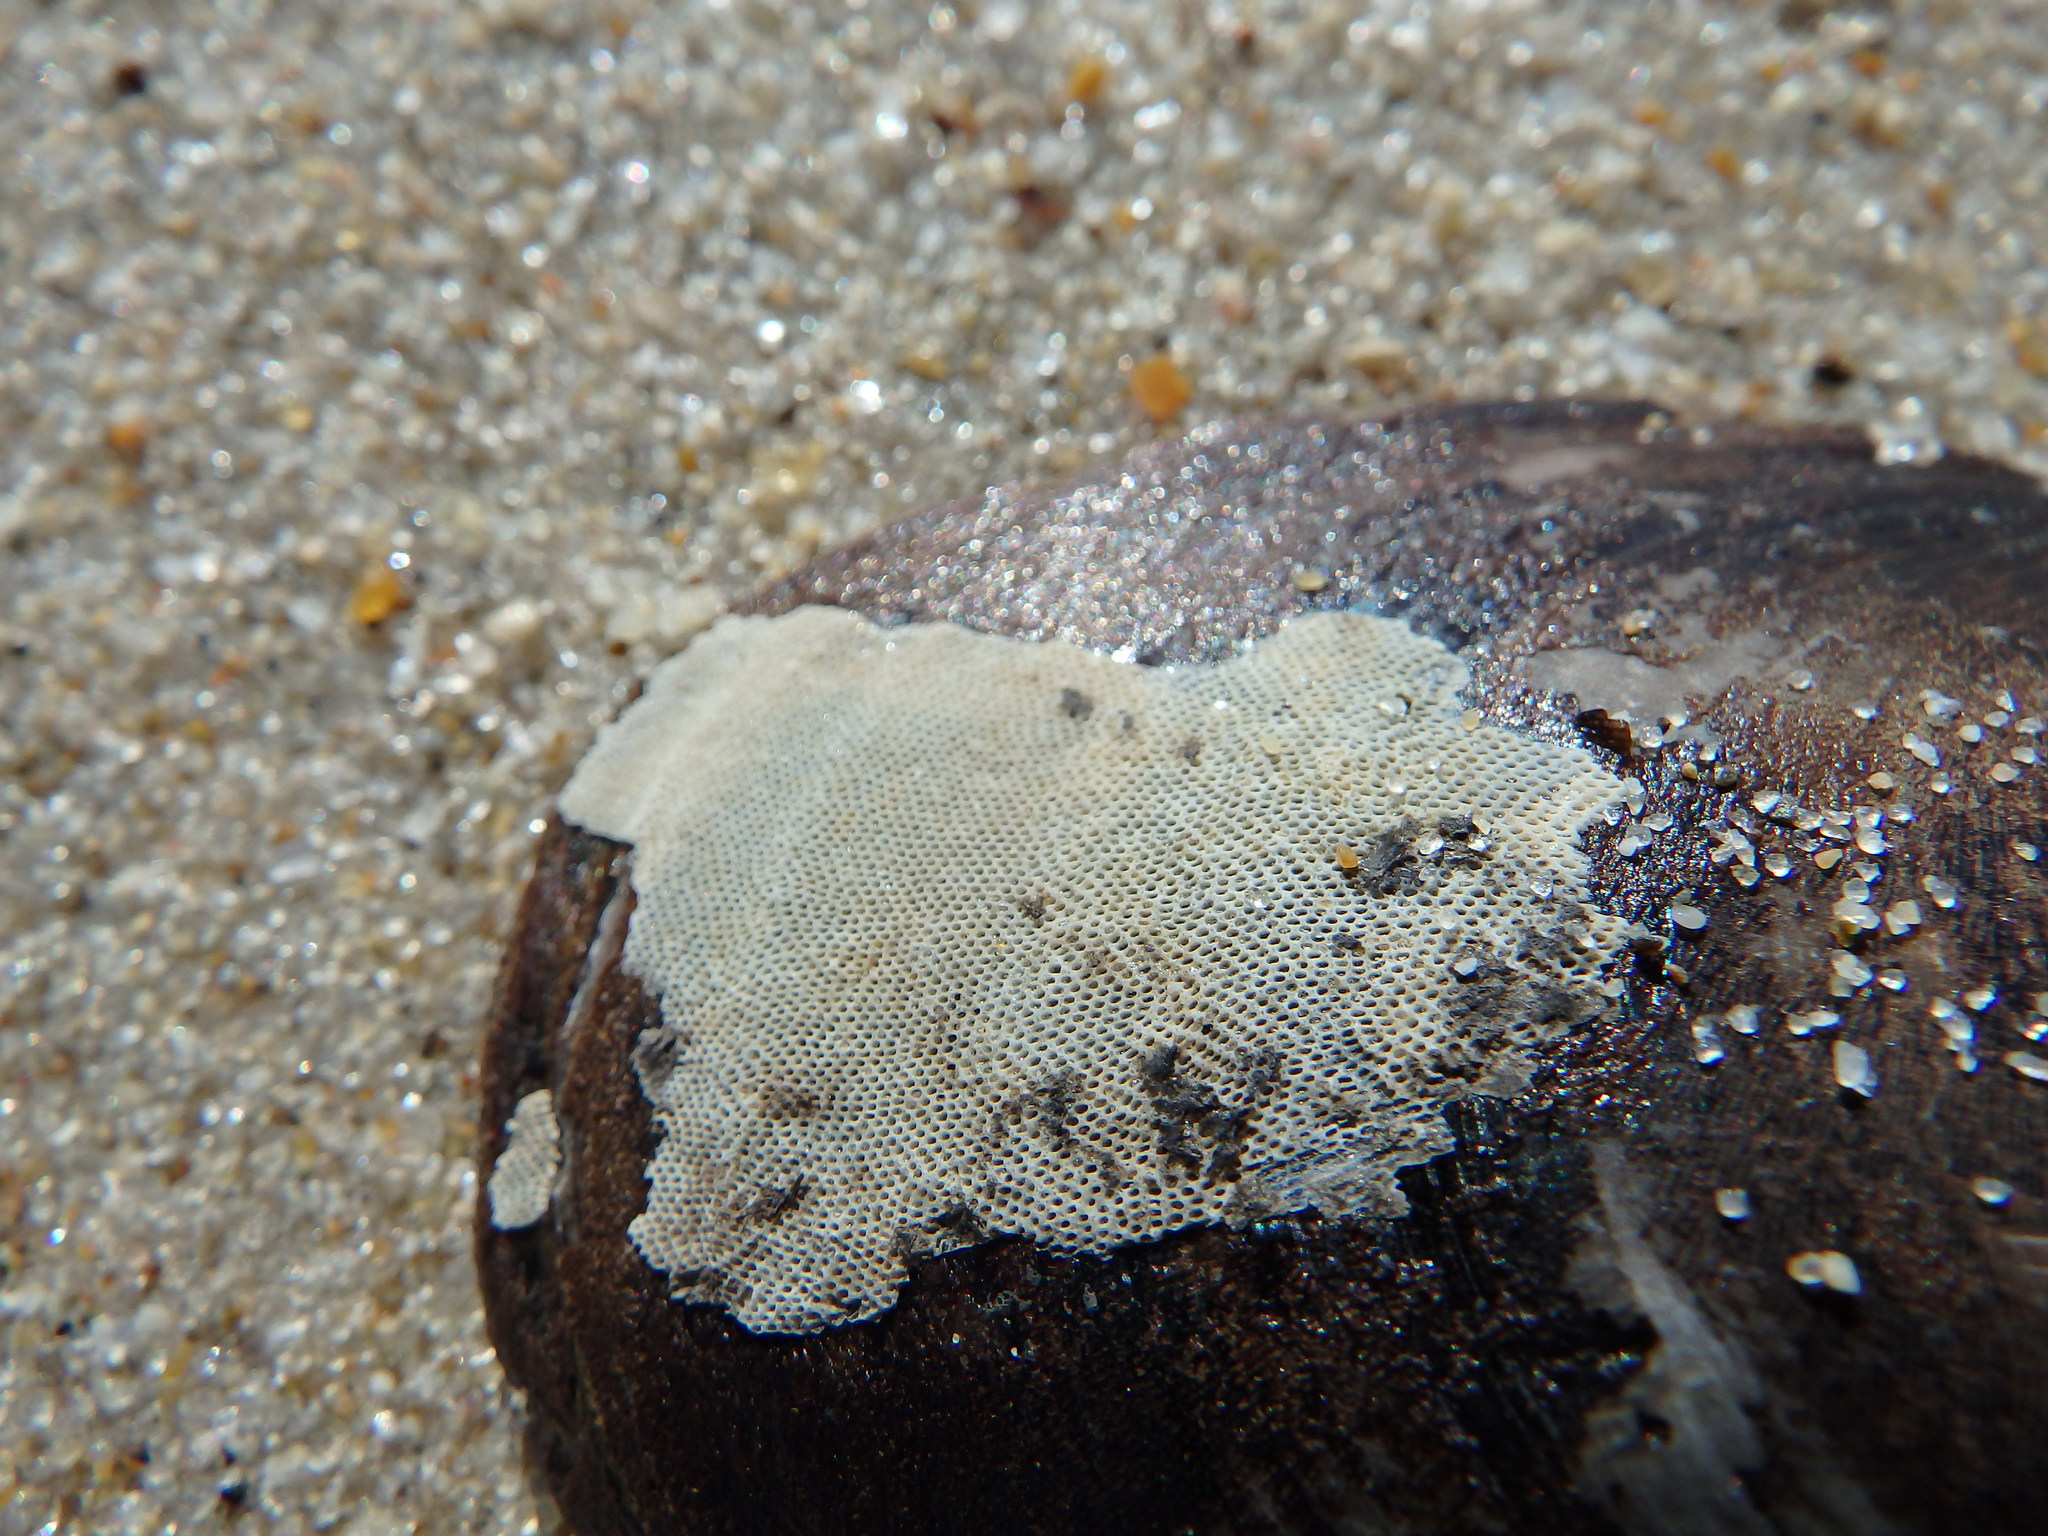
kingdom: Animalia
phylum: Bryozoa
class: Gymnolaemata
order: Cheilostomatida
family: Electridae
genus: Electra
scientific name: Electra pilosa
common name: Hairy sea-mat
